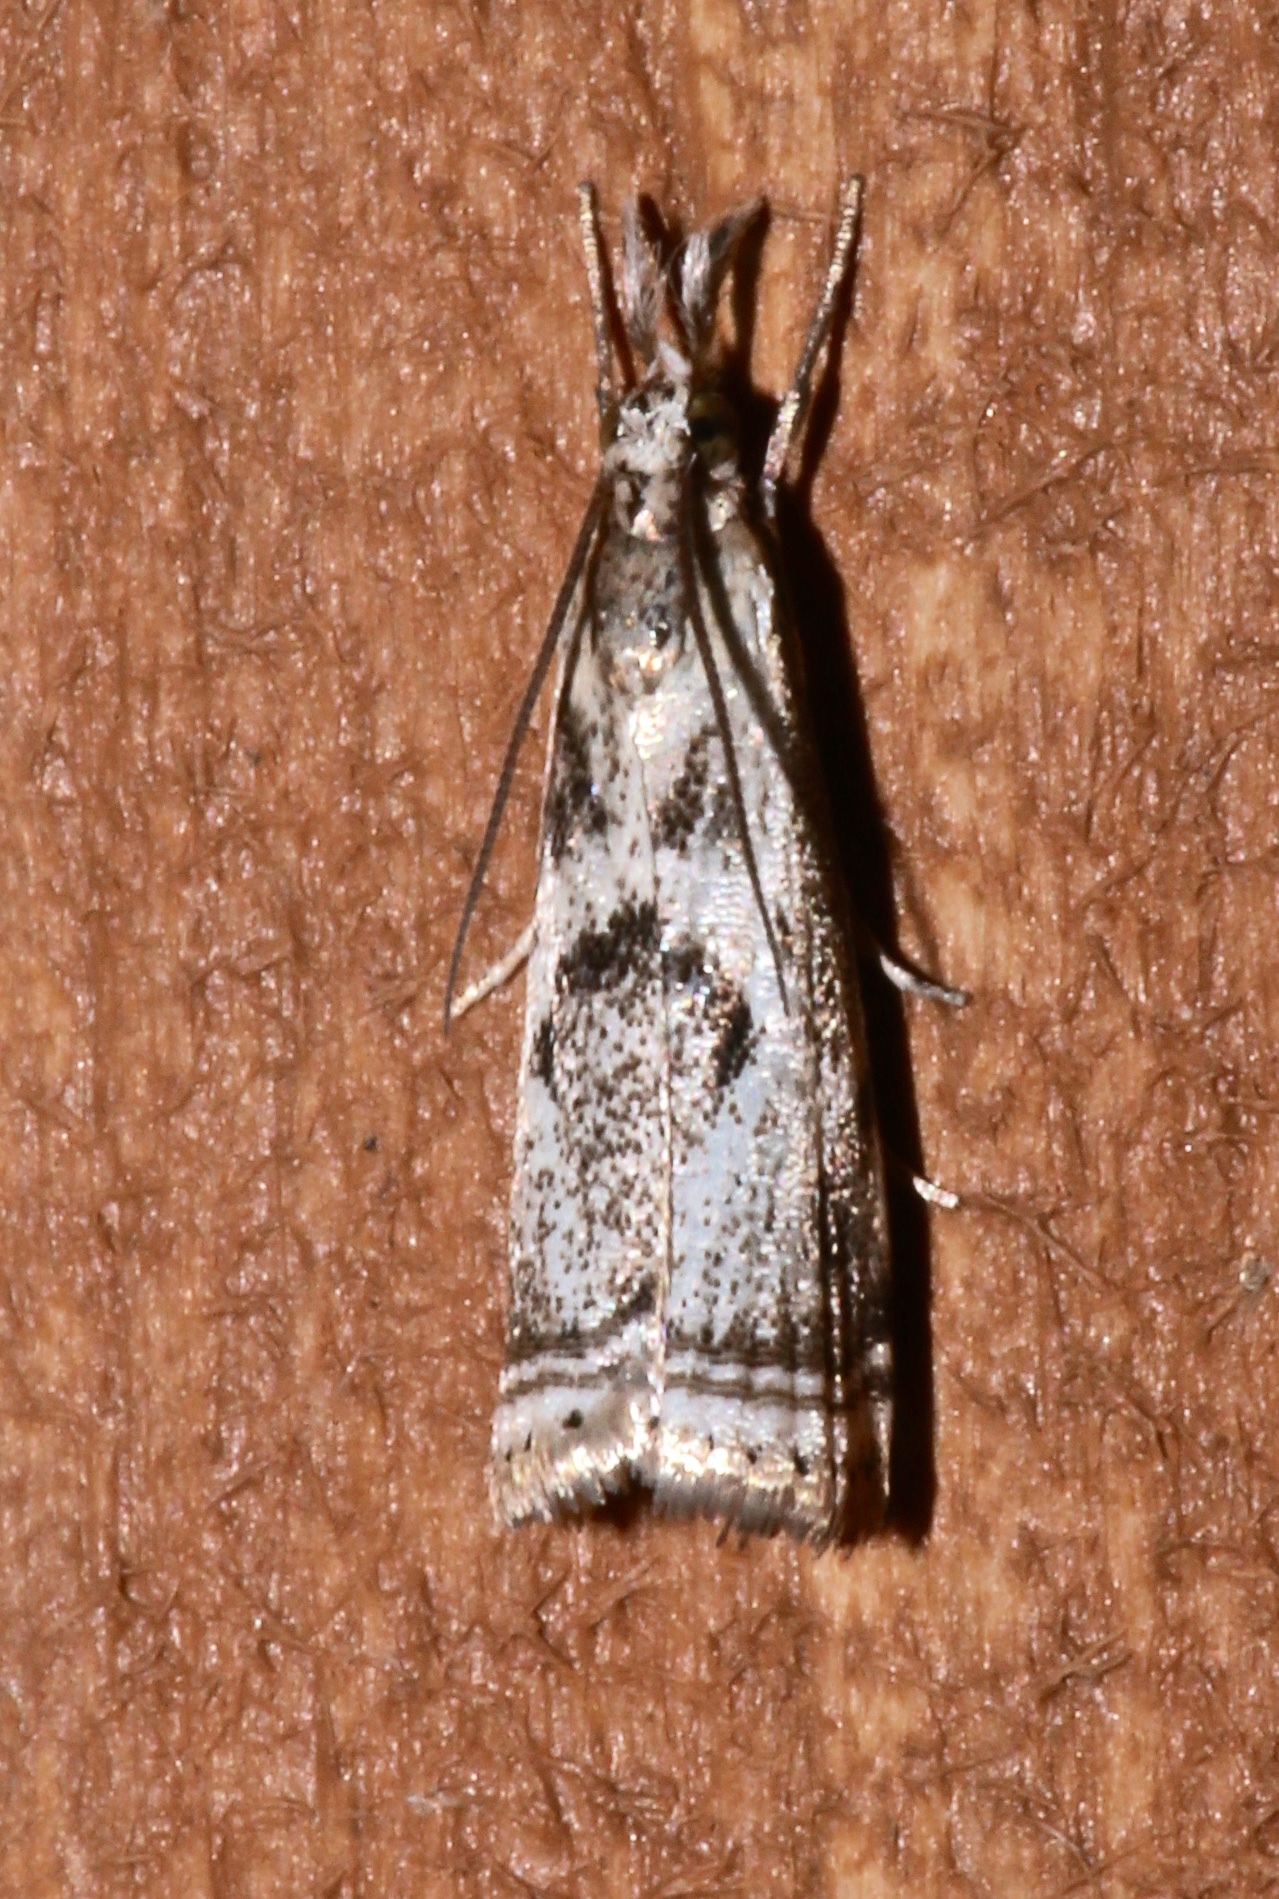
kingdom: Animalia
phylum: Arthropoda
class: Insecta
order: Lepidoptera
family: Crambidae
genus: Microcrambus
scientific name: Microcrambus elegans
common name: Elegant grass-veneer
